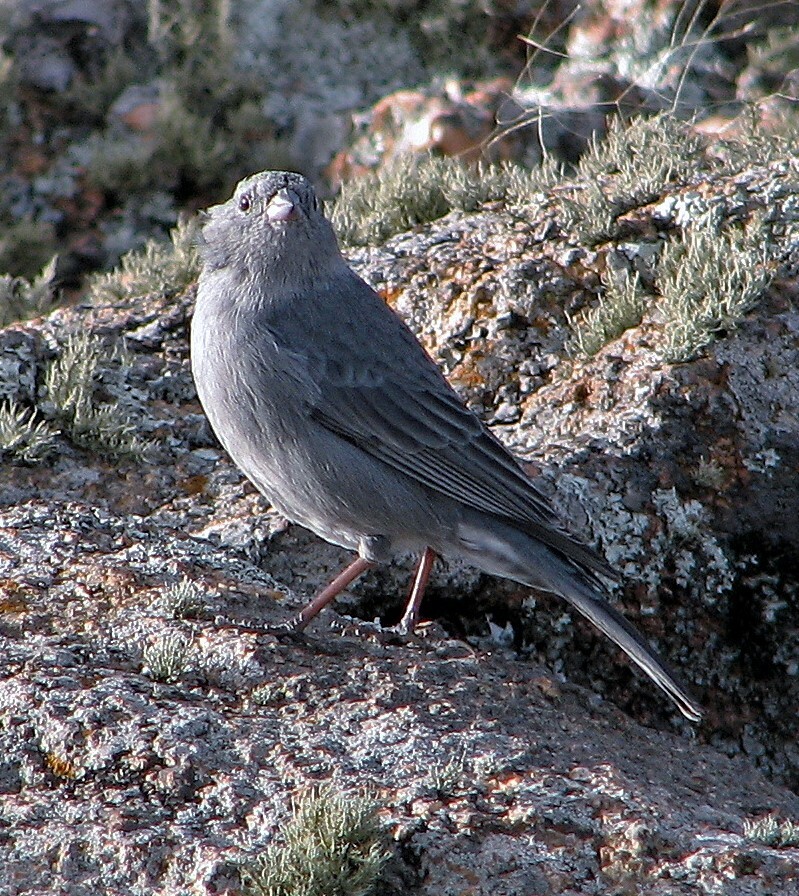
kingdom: Animalia
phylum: Chordata
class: Aves
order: Passeriformes
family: Thraupidae
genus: Geospizopsis
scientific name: Geospizopsis unicolor
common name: Plumbeous sierra-finch
